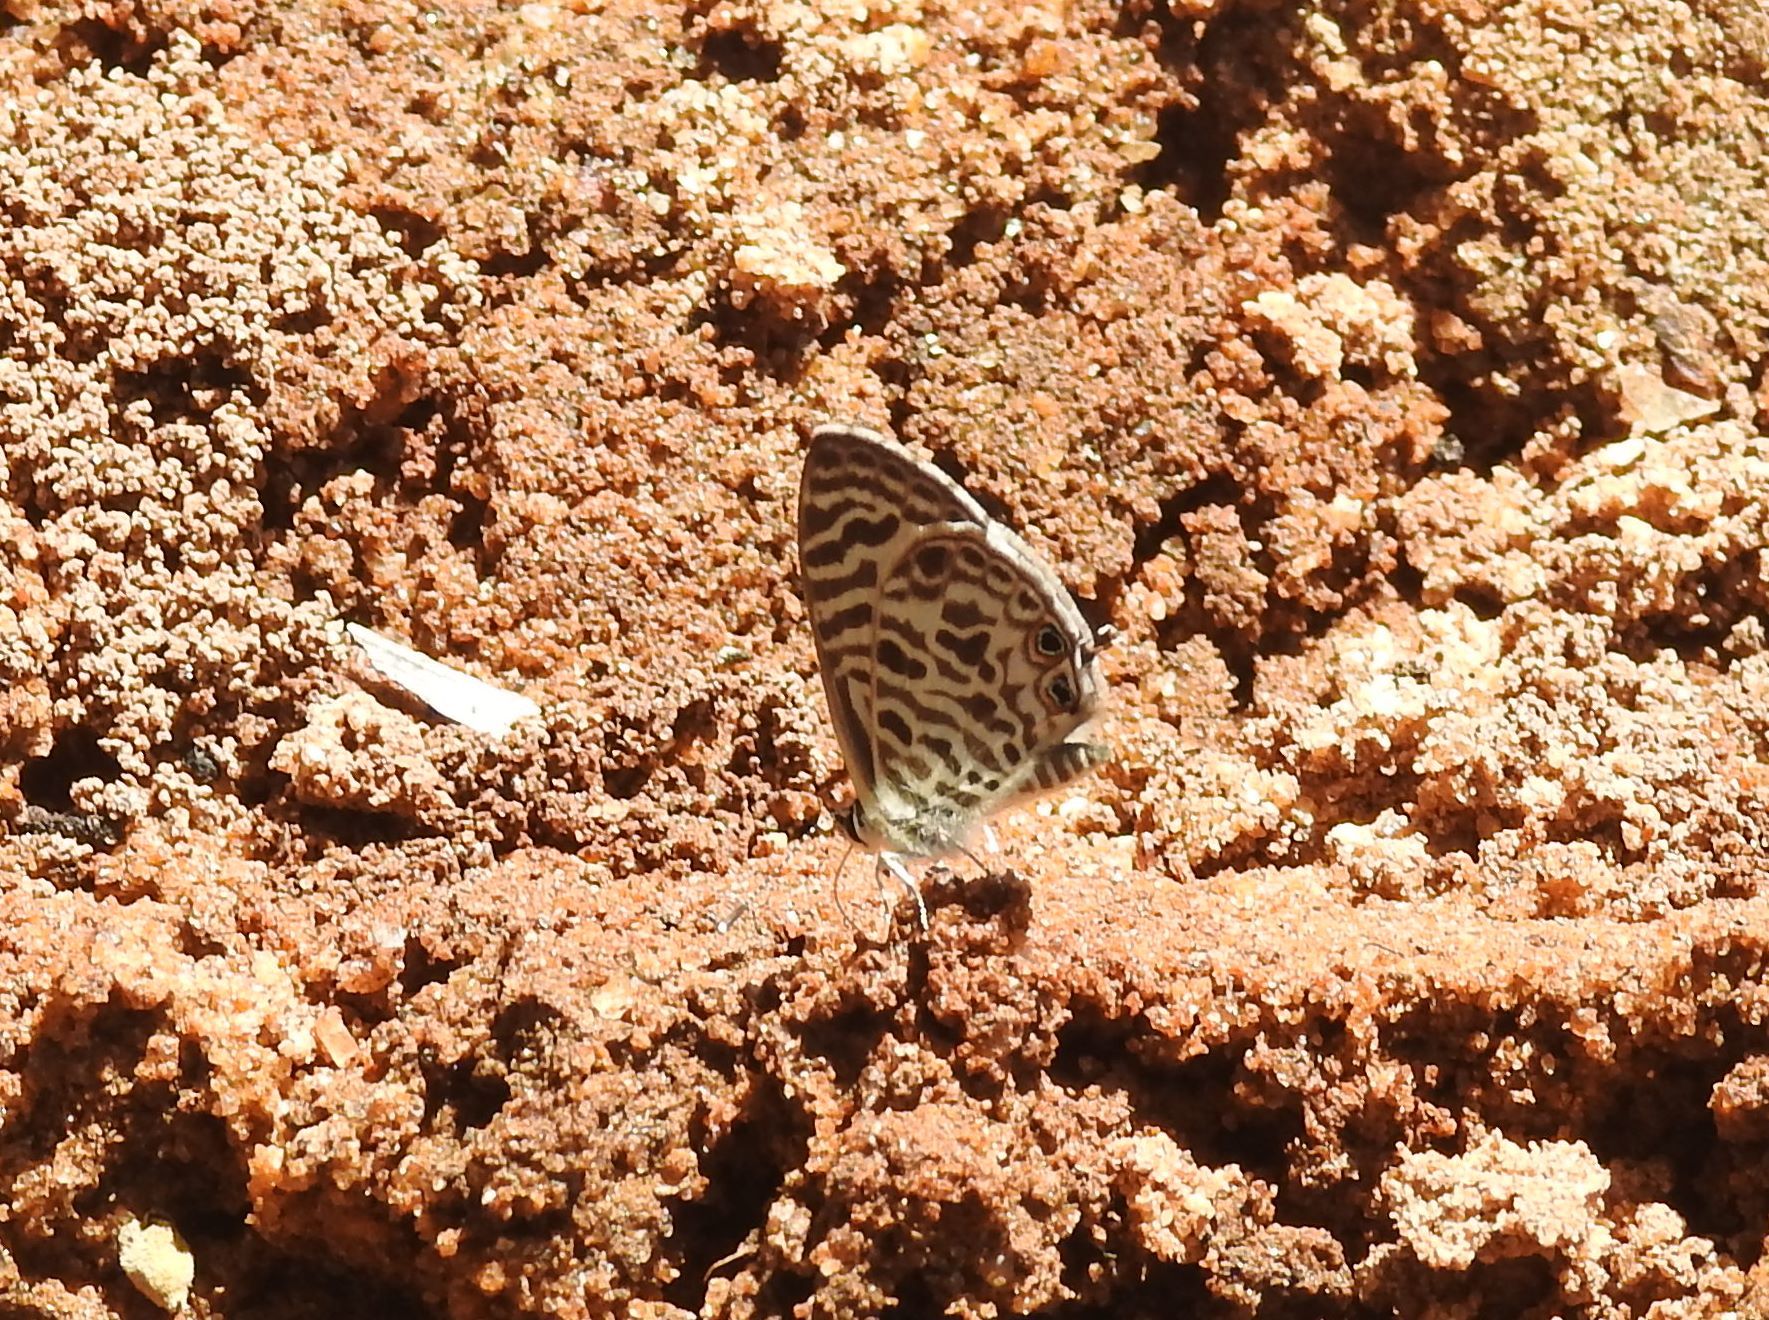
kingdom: Animalia
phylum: Arthropoda
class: Insecta
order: Lepidoptera
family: Lycaenidae
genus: Leptotes
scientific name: Leptotes plinius
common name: Zebra blue
